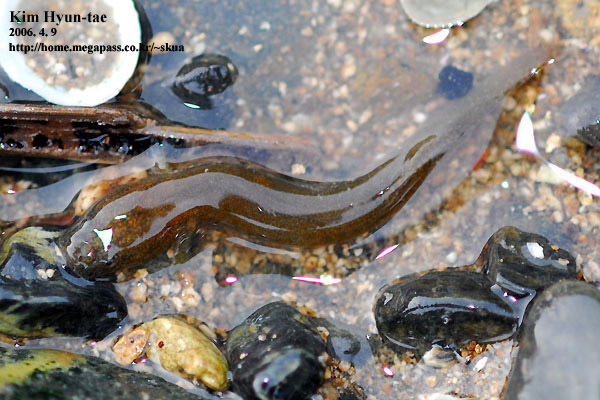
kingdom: Animalia
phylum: Chordata
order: Perciformes
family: Gobiidae
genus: Luciogobius
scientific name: Luciogobius guttatus
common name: Flat-headed goby
